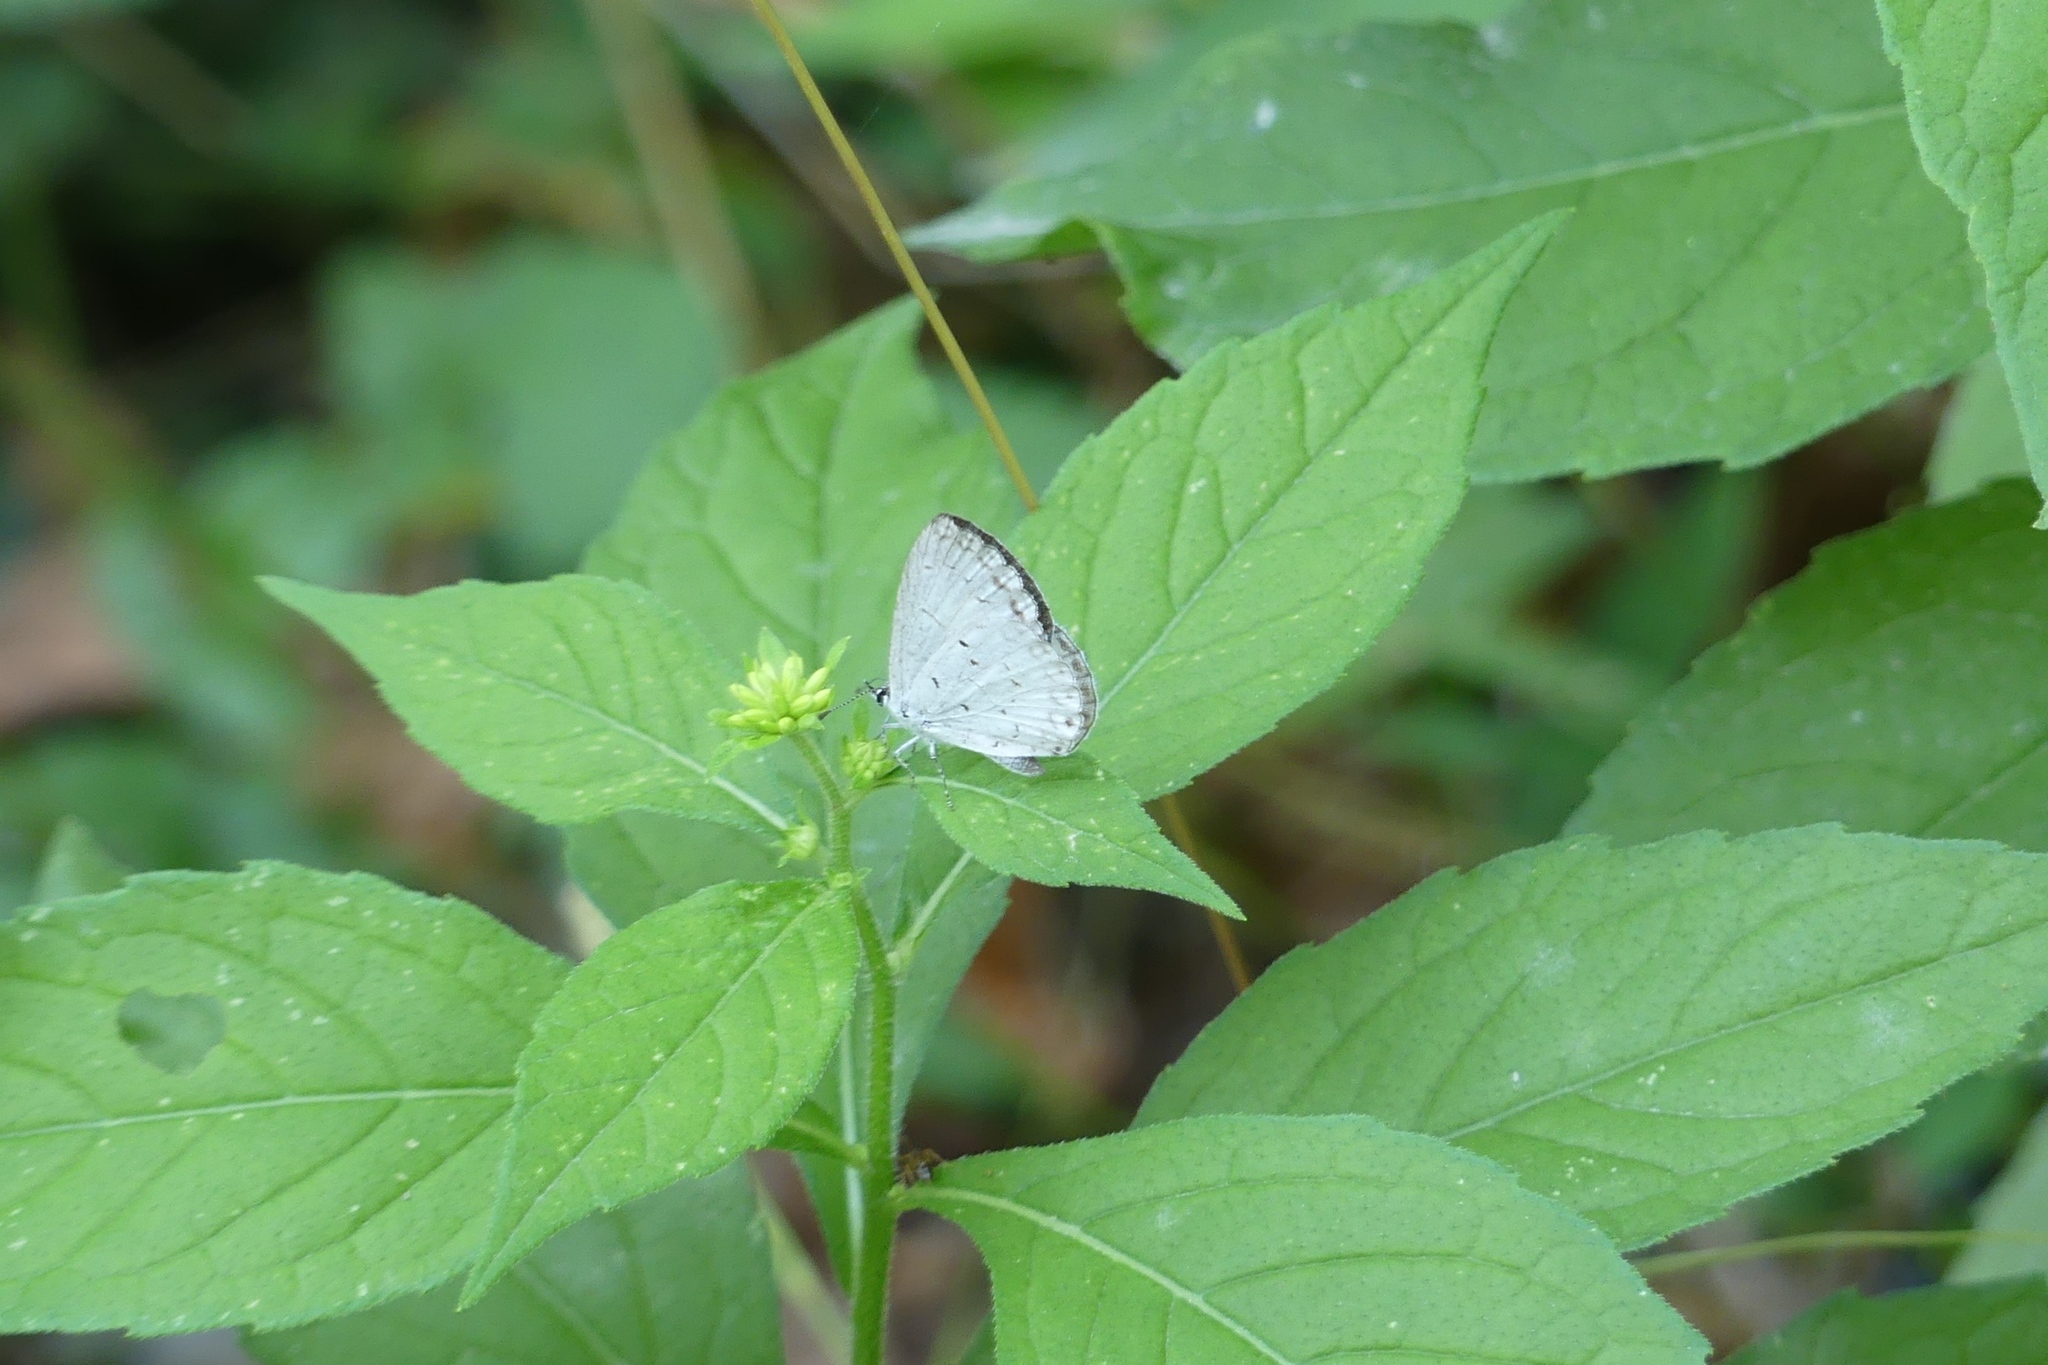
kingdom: Animalia
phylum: Arthropoda
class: Insecta
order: Lepidoptera
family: Lycaenidae
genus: Cyaniris
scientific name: Cyaniris neglecta
